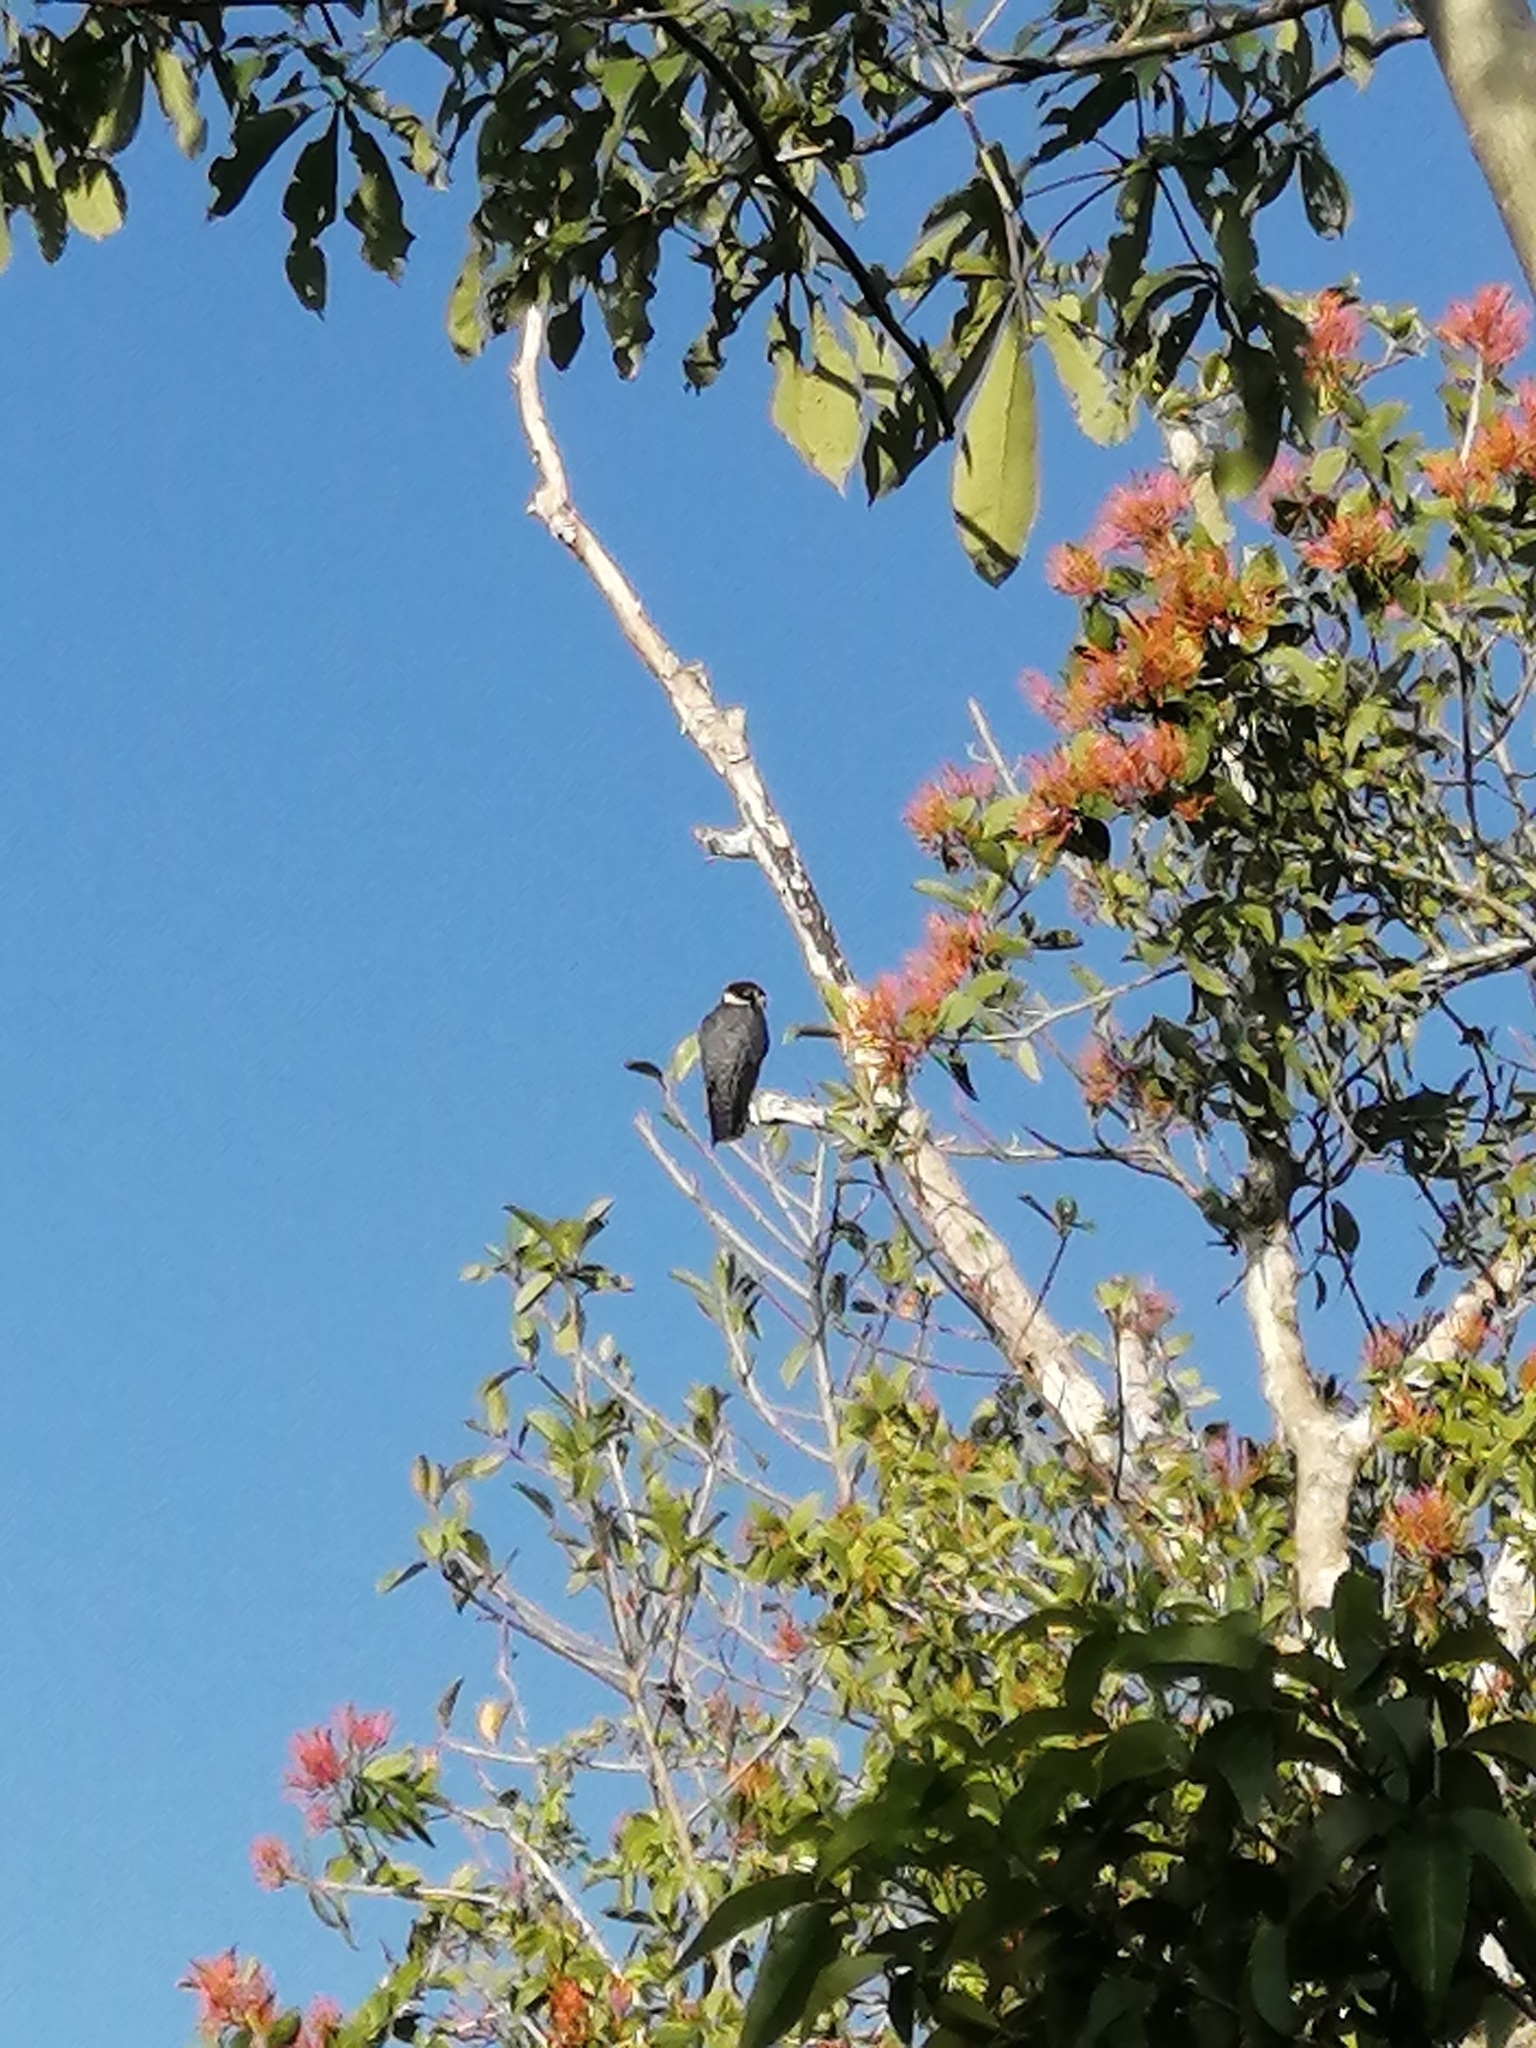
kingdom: Animalia
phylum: Chordata
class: Aves
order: Falconiformes
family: Falconidae
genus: Falco
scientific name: Falco rufigularis
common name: Bat falcon
